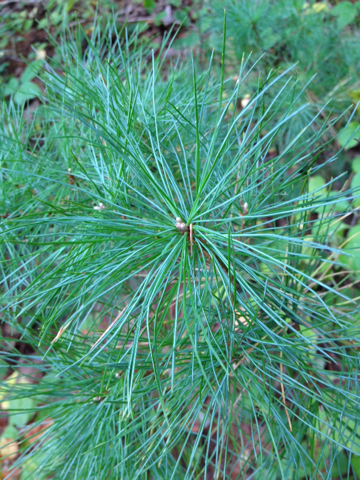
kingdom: Plantae
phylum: Tracheophyta
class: Pinopsida
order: Pinales
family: Pinaceae
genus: Pinus
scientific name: Pinus strobus
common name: Weymouth pine
